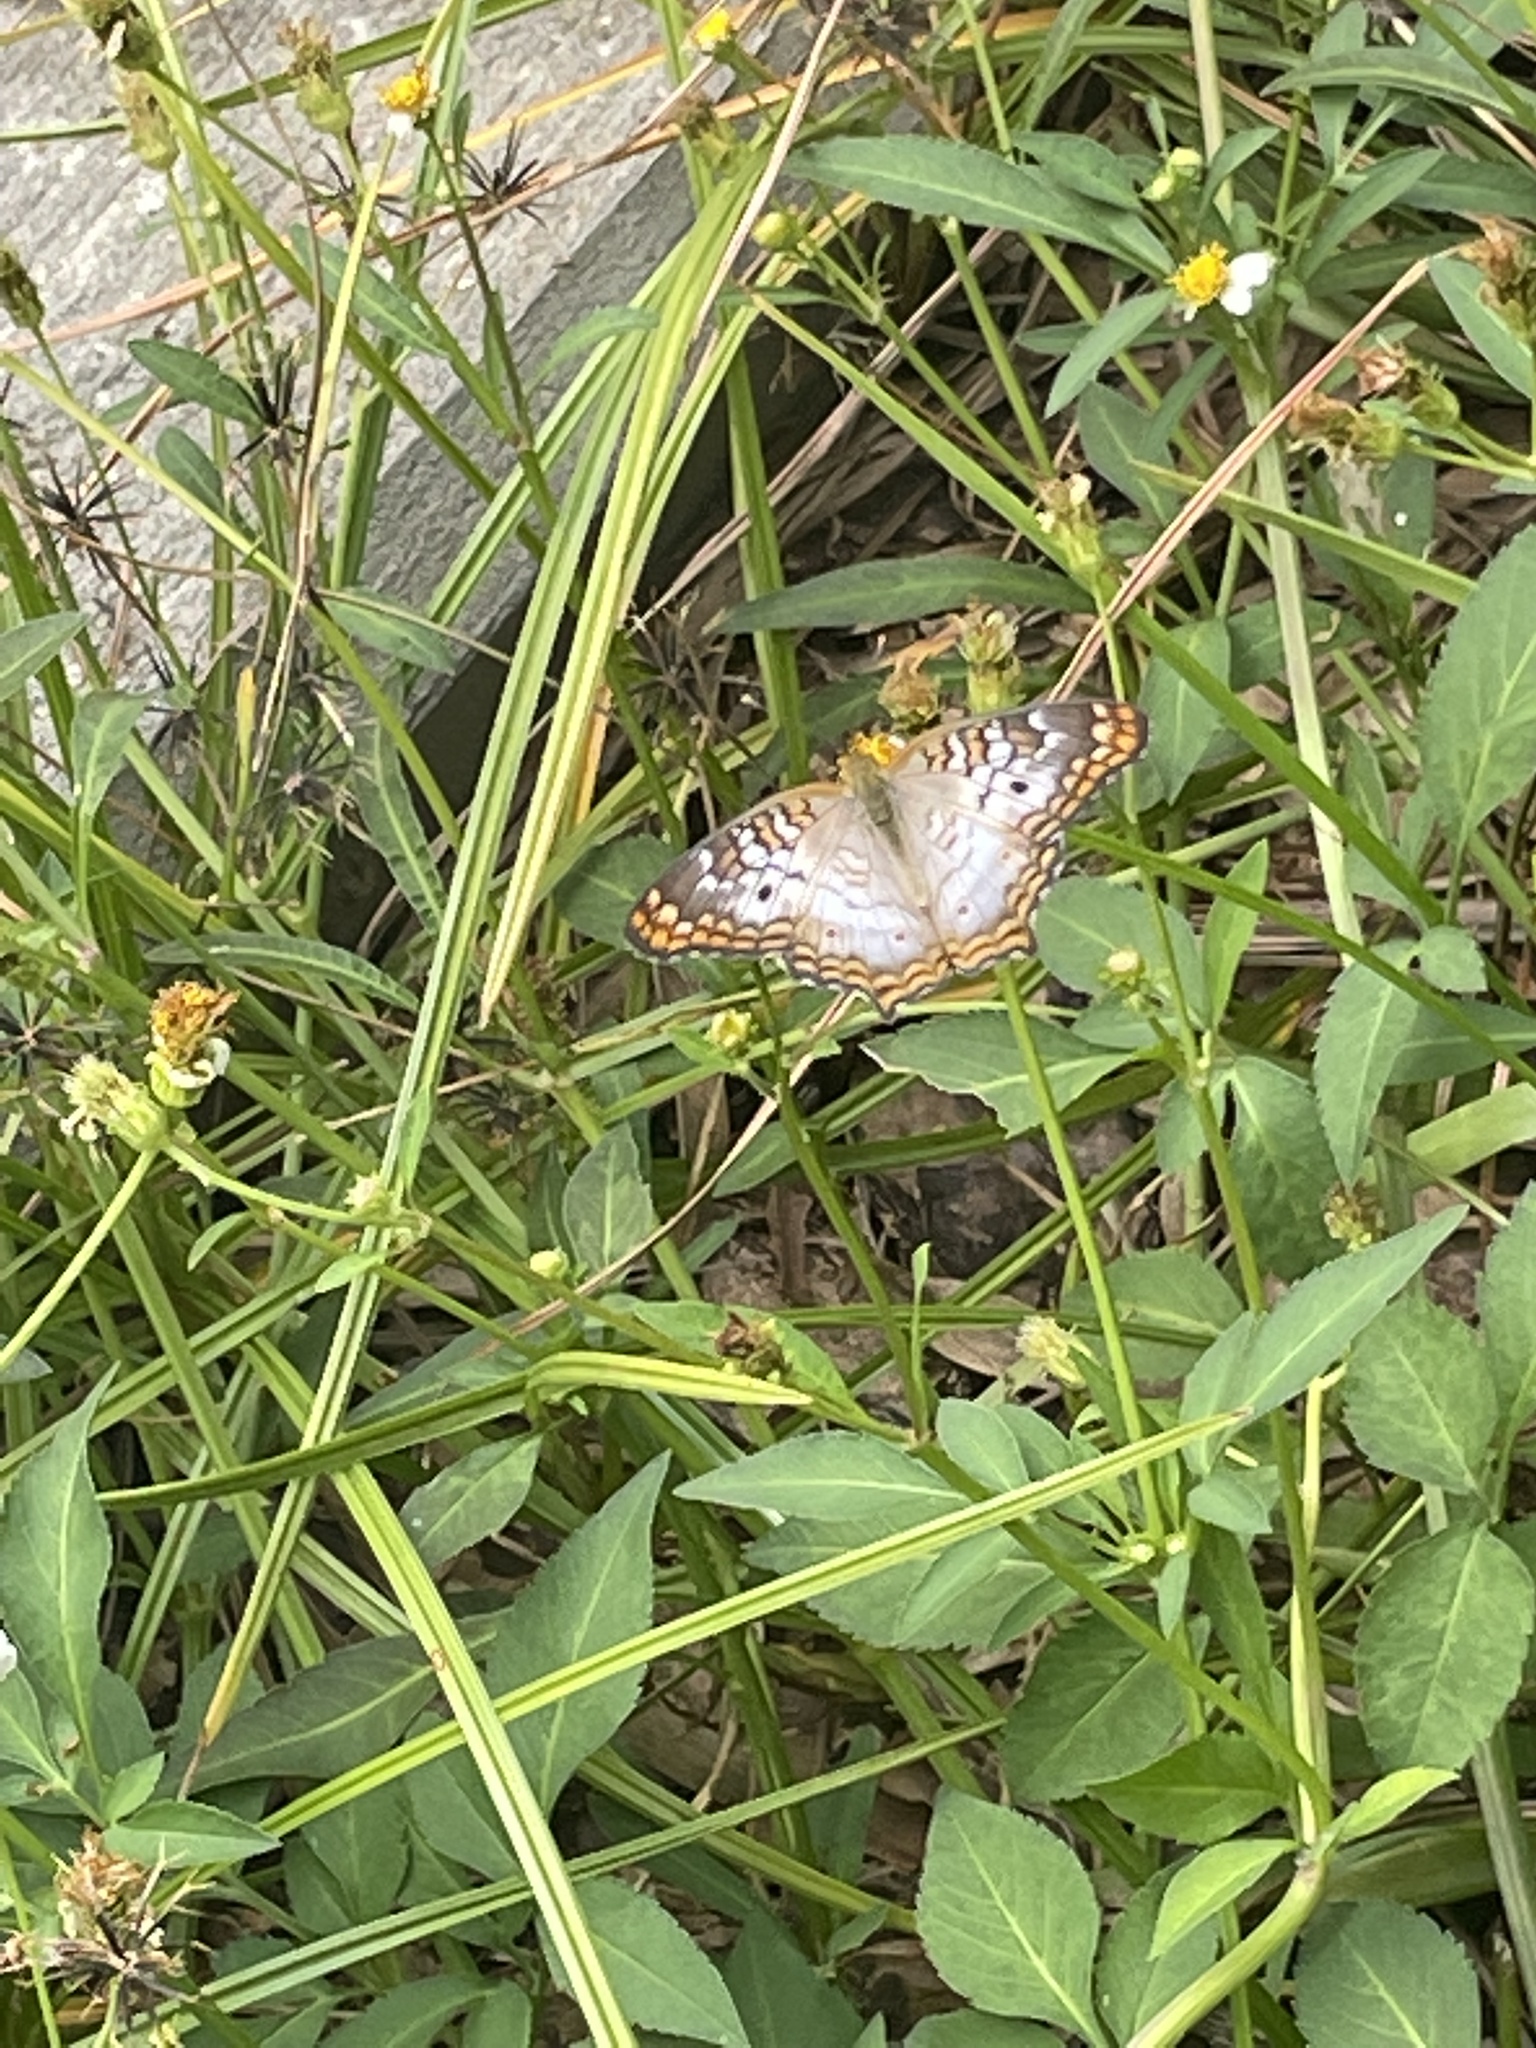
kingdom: Animalia
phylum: Arthropoda
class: Insecta
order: Lepidoptera
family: Nymphalidae
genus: Anartia
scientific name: Anartia jatrophae
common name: White peacock
